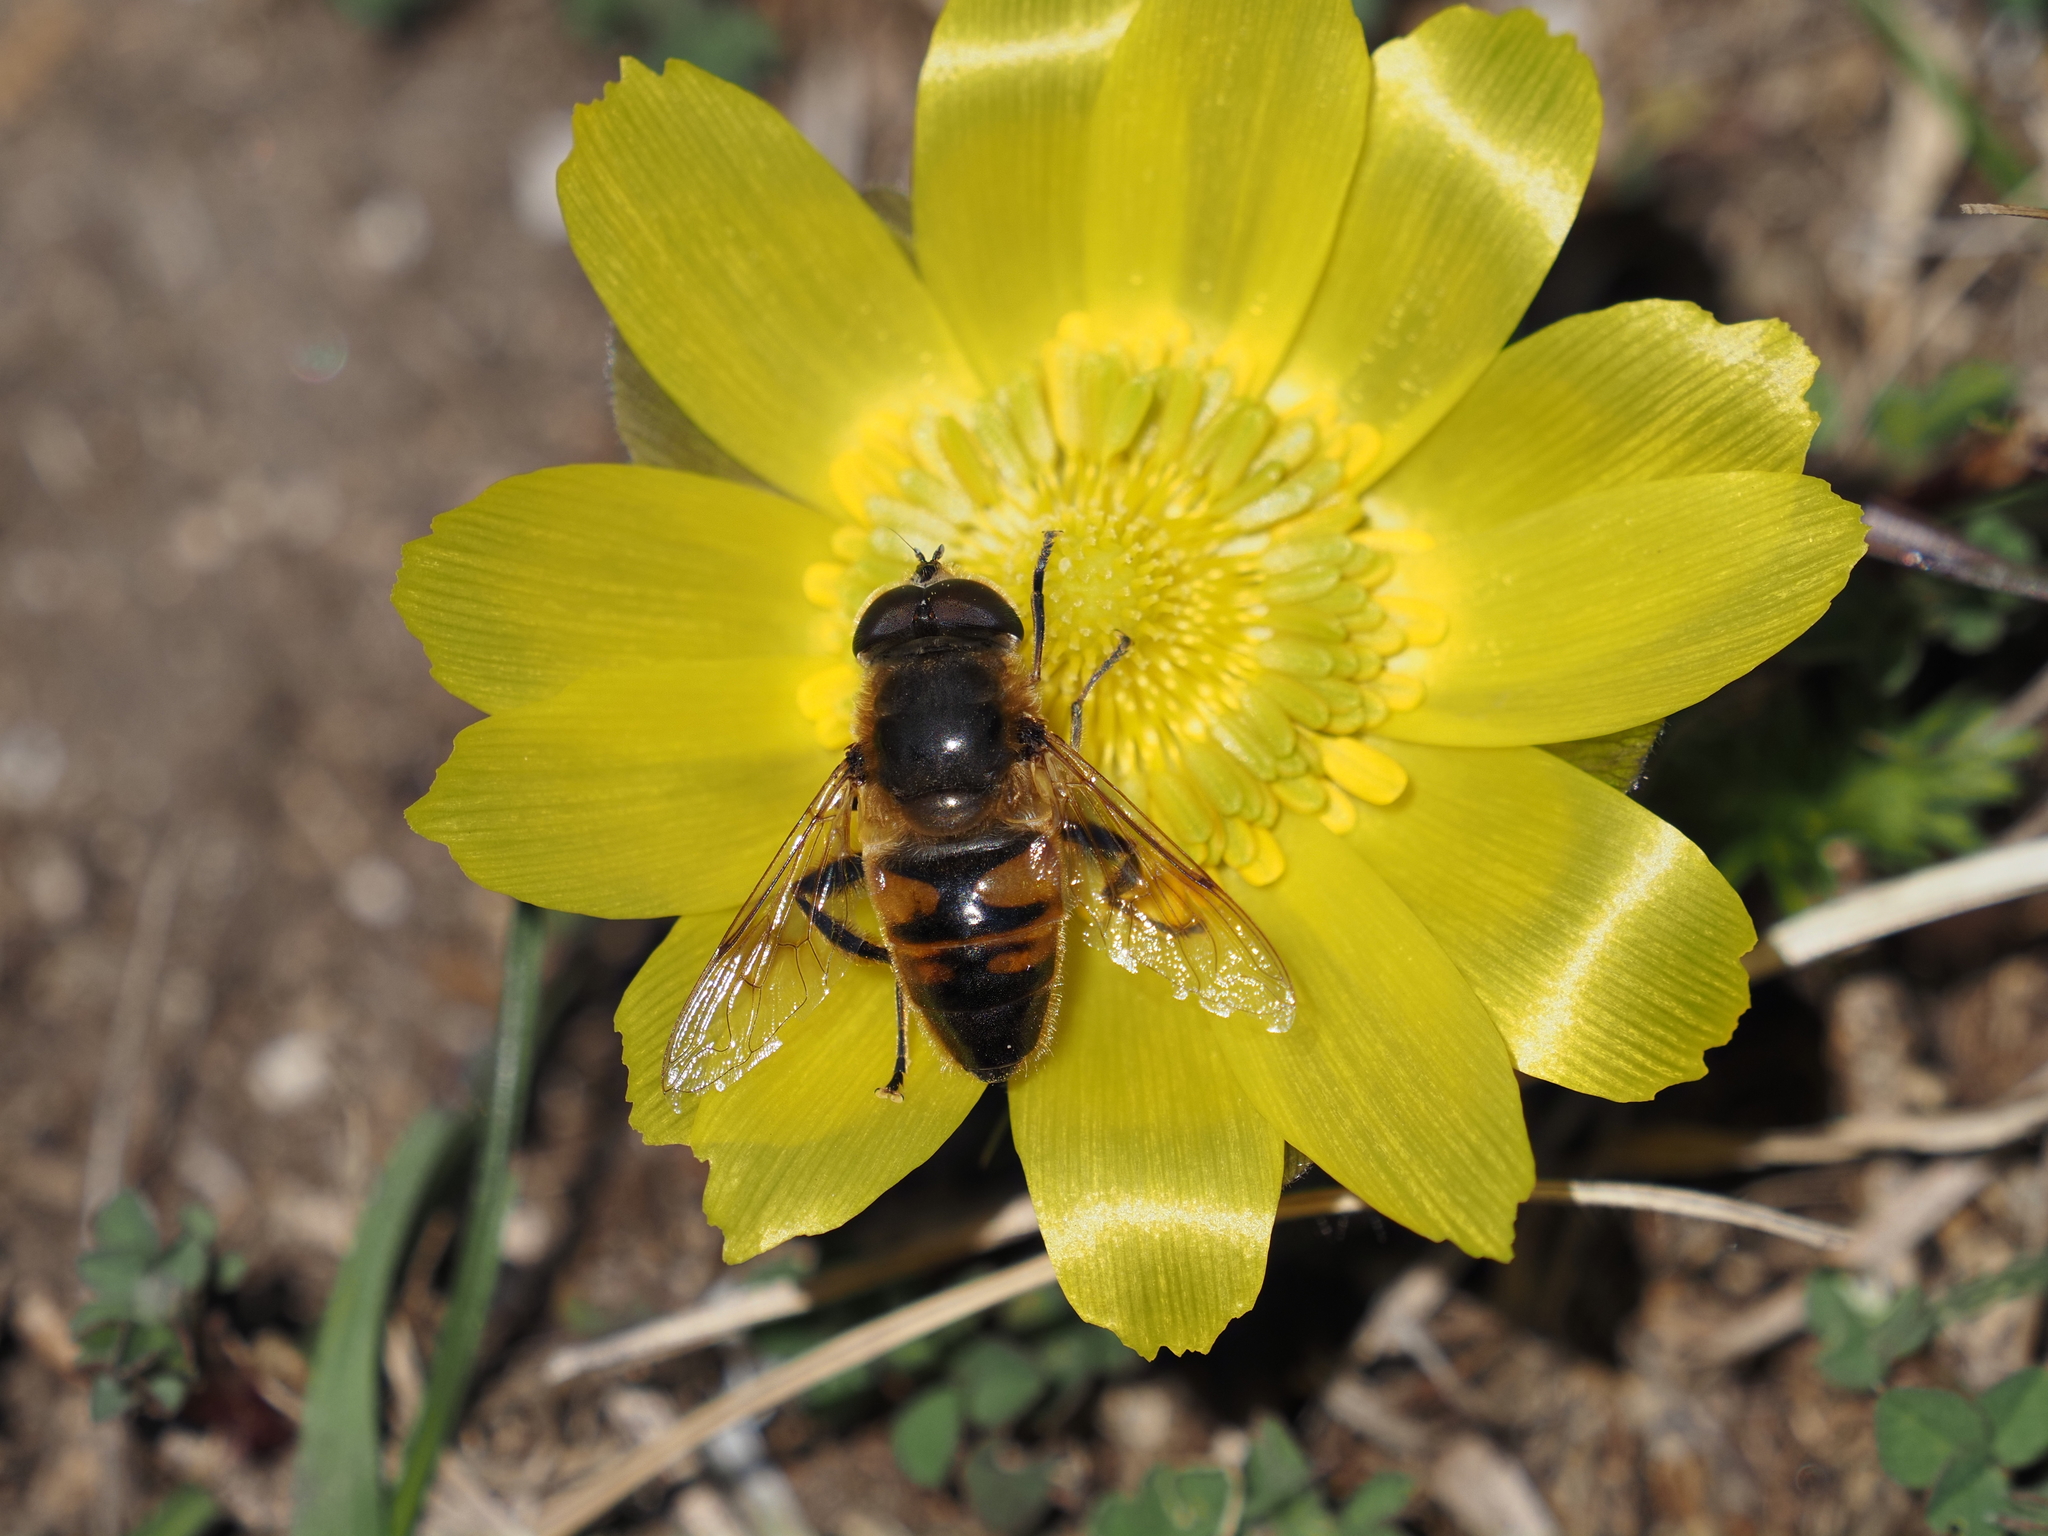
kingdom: Animalia
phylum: Arthropoda
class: Insecta
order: Diptera
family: Syrphidae
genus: Eristalis
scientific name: Eristalis tenax
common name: Drone fly
